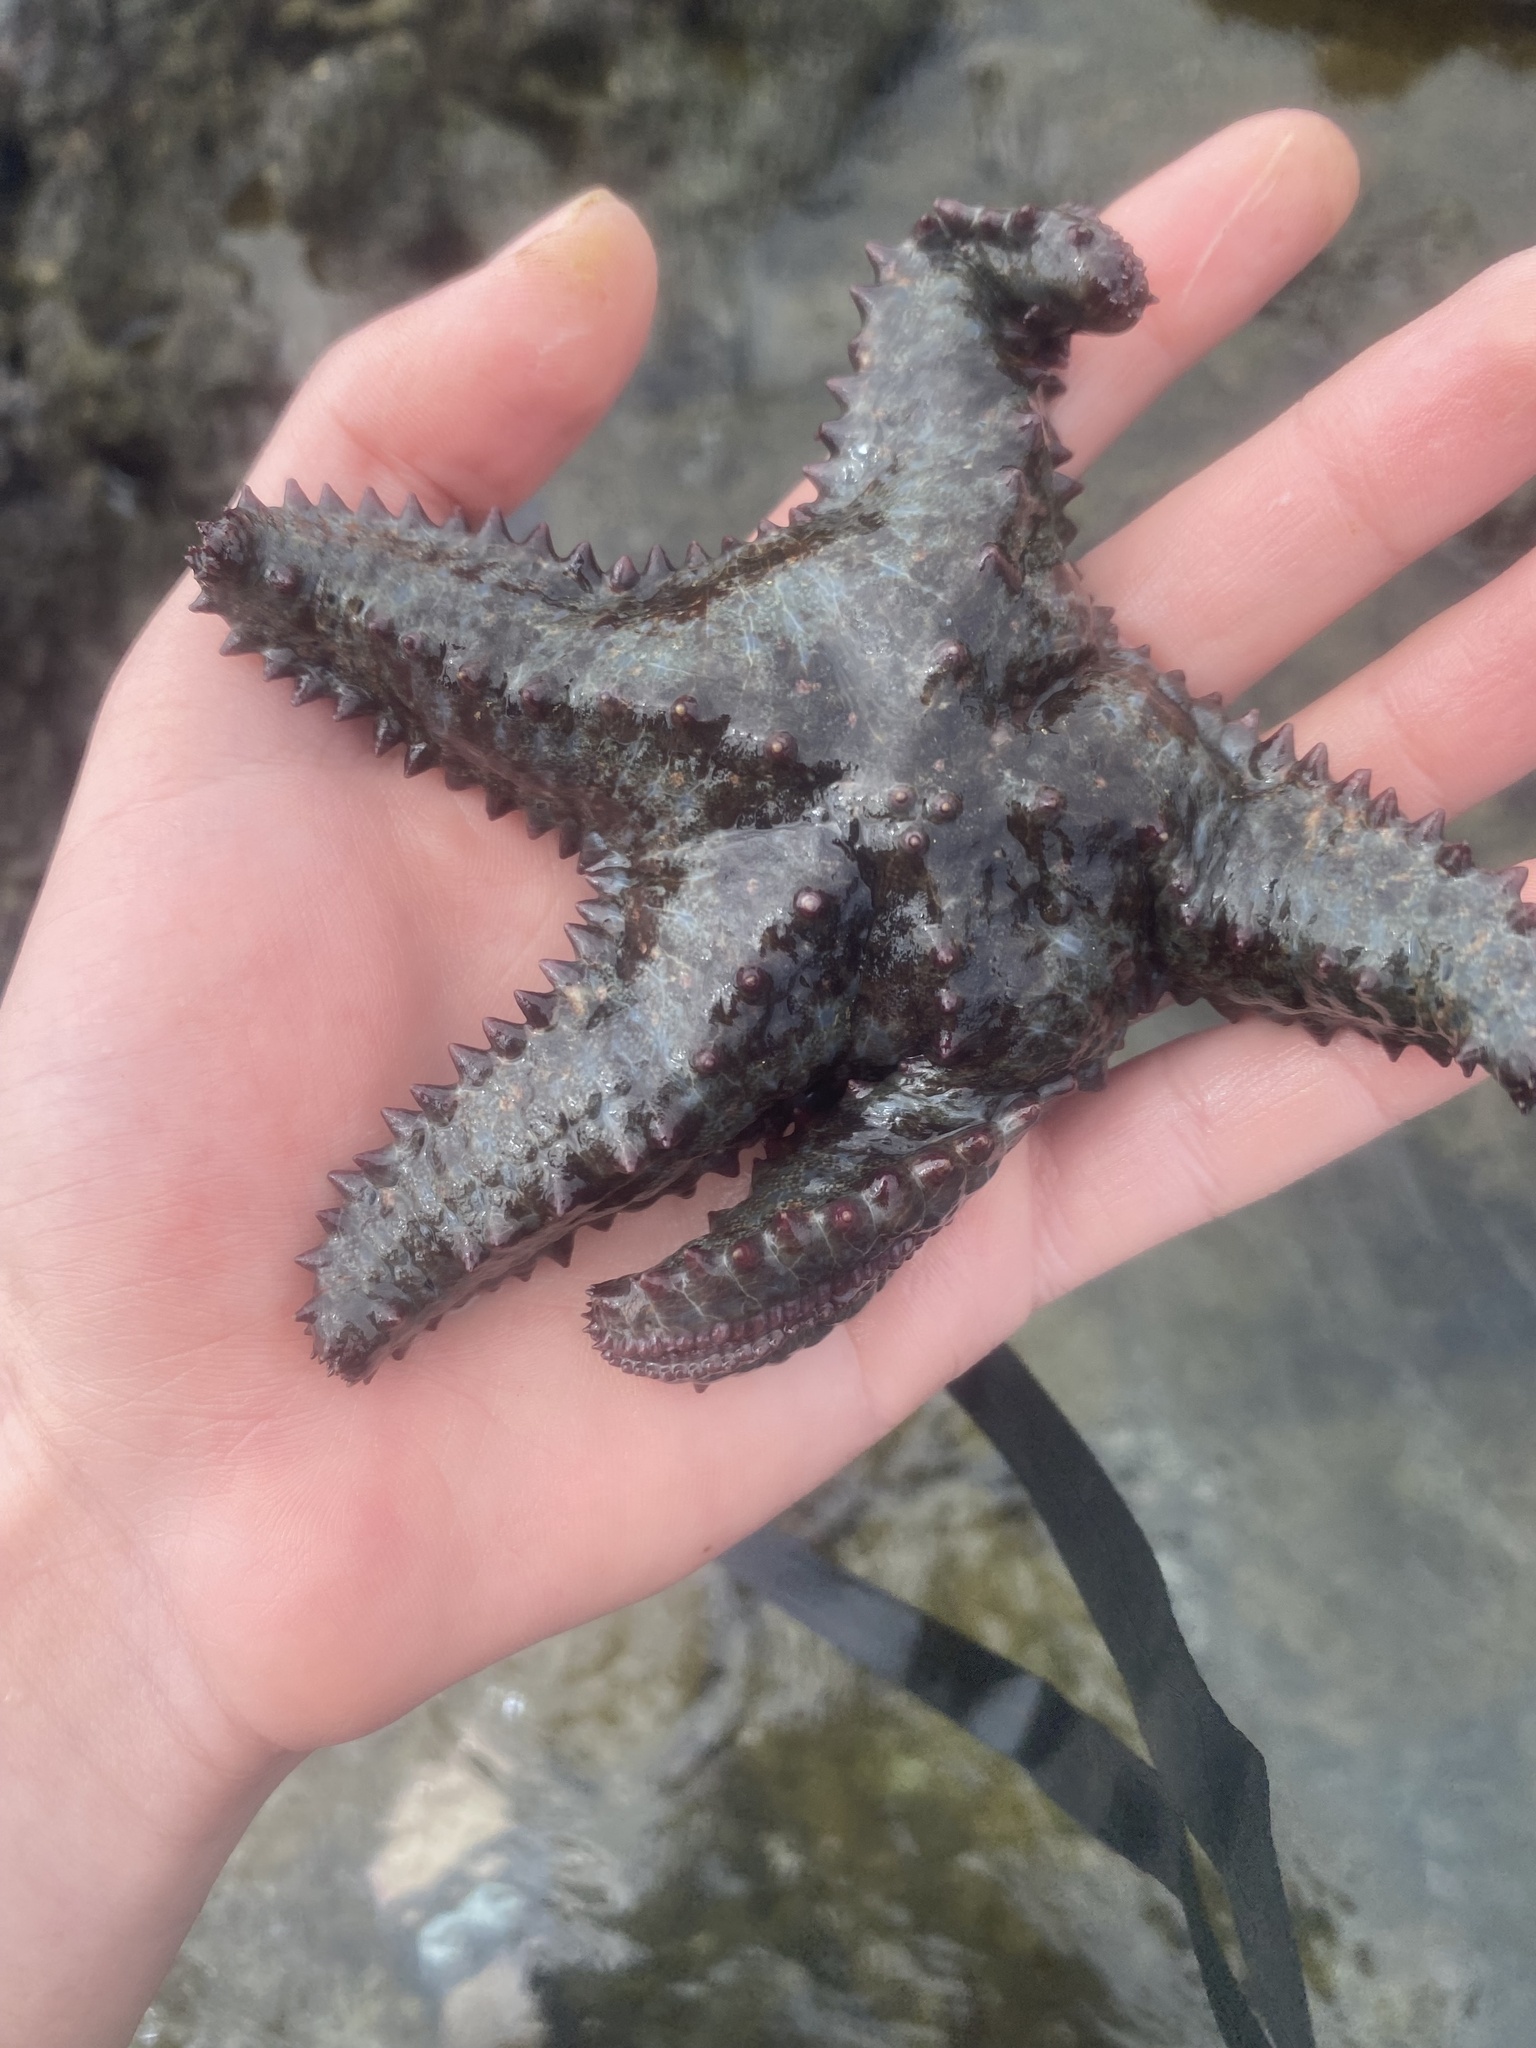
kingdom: Animalia
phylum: Echinodermata
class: Asteroidea
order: Valvatida
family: Asteropseidae
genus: Asteropsis
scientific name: Asteropsis carinifera
